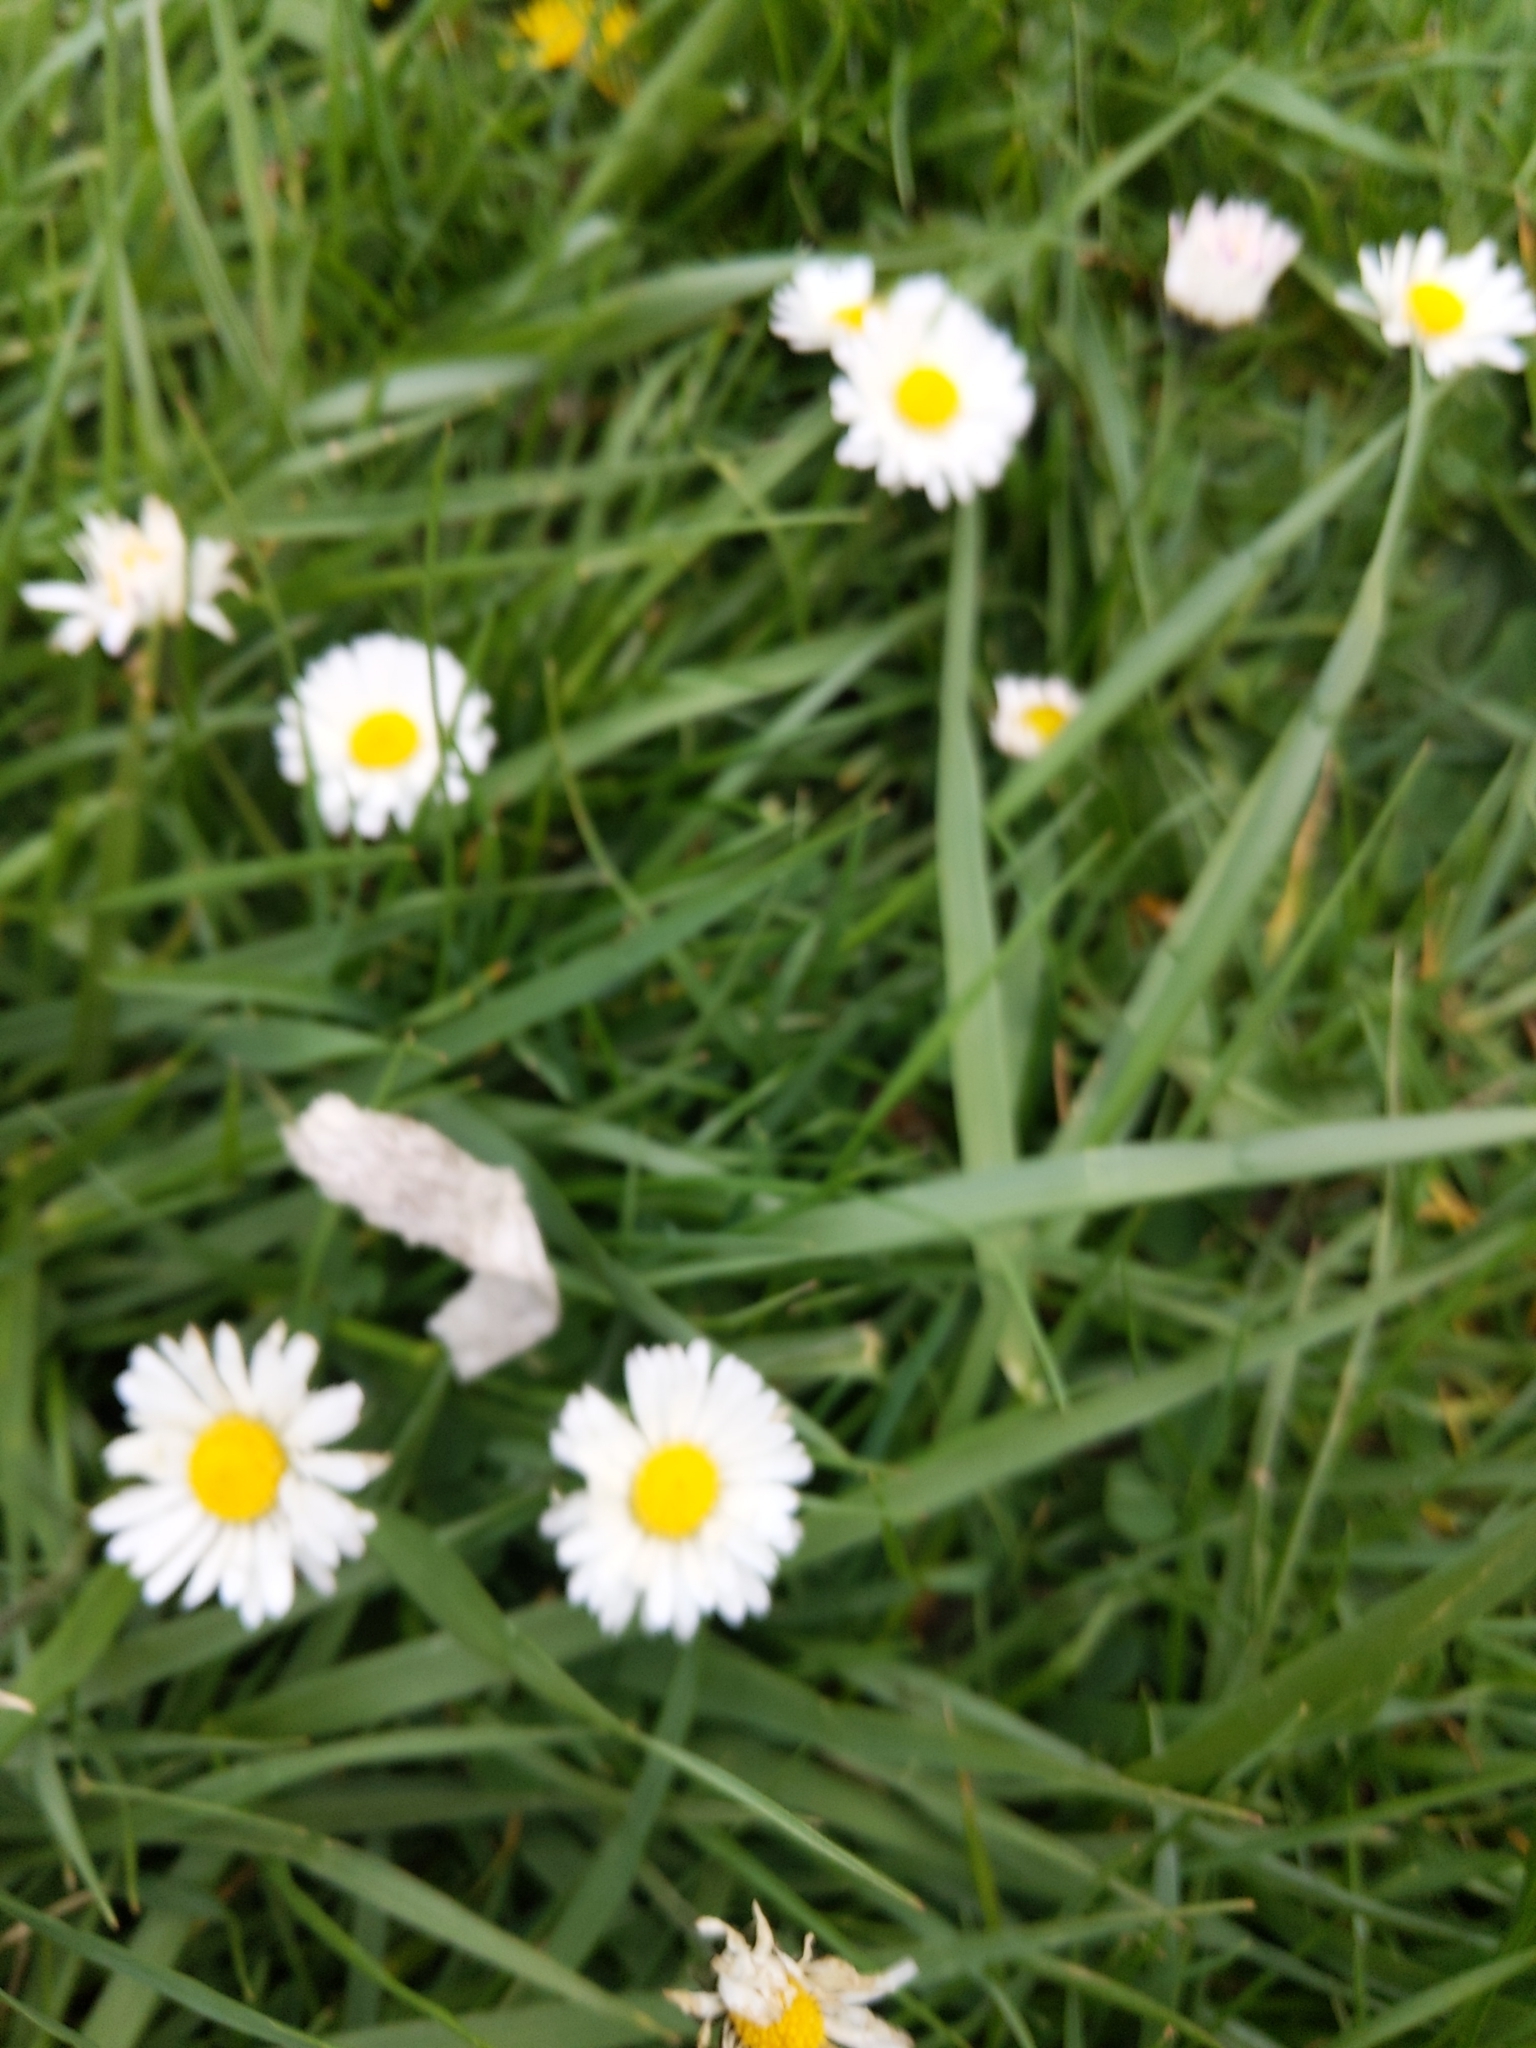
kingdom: Plantae
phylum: Tracheophyta
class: Magnoliopsida
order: Asterales
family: Asteraceae
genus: Bellis
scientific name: Bellis perennis
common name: Lawndaisy
